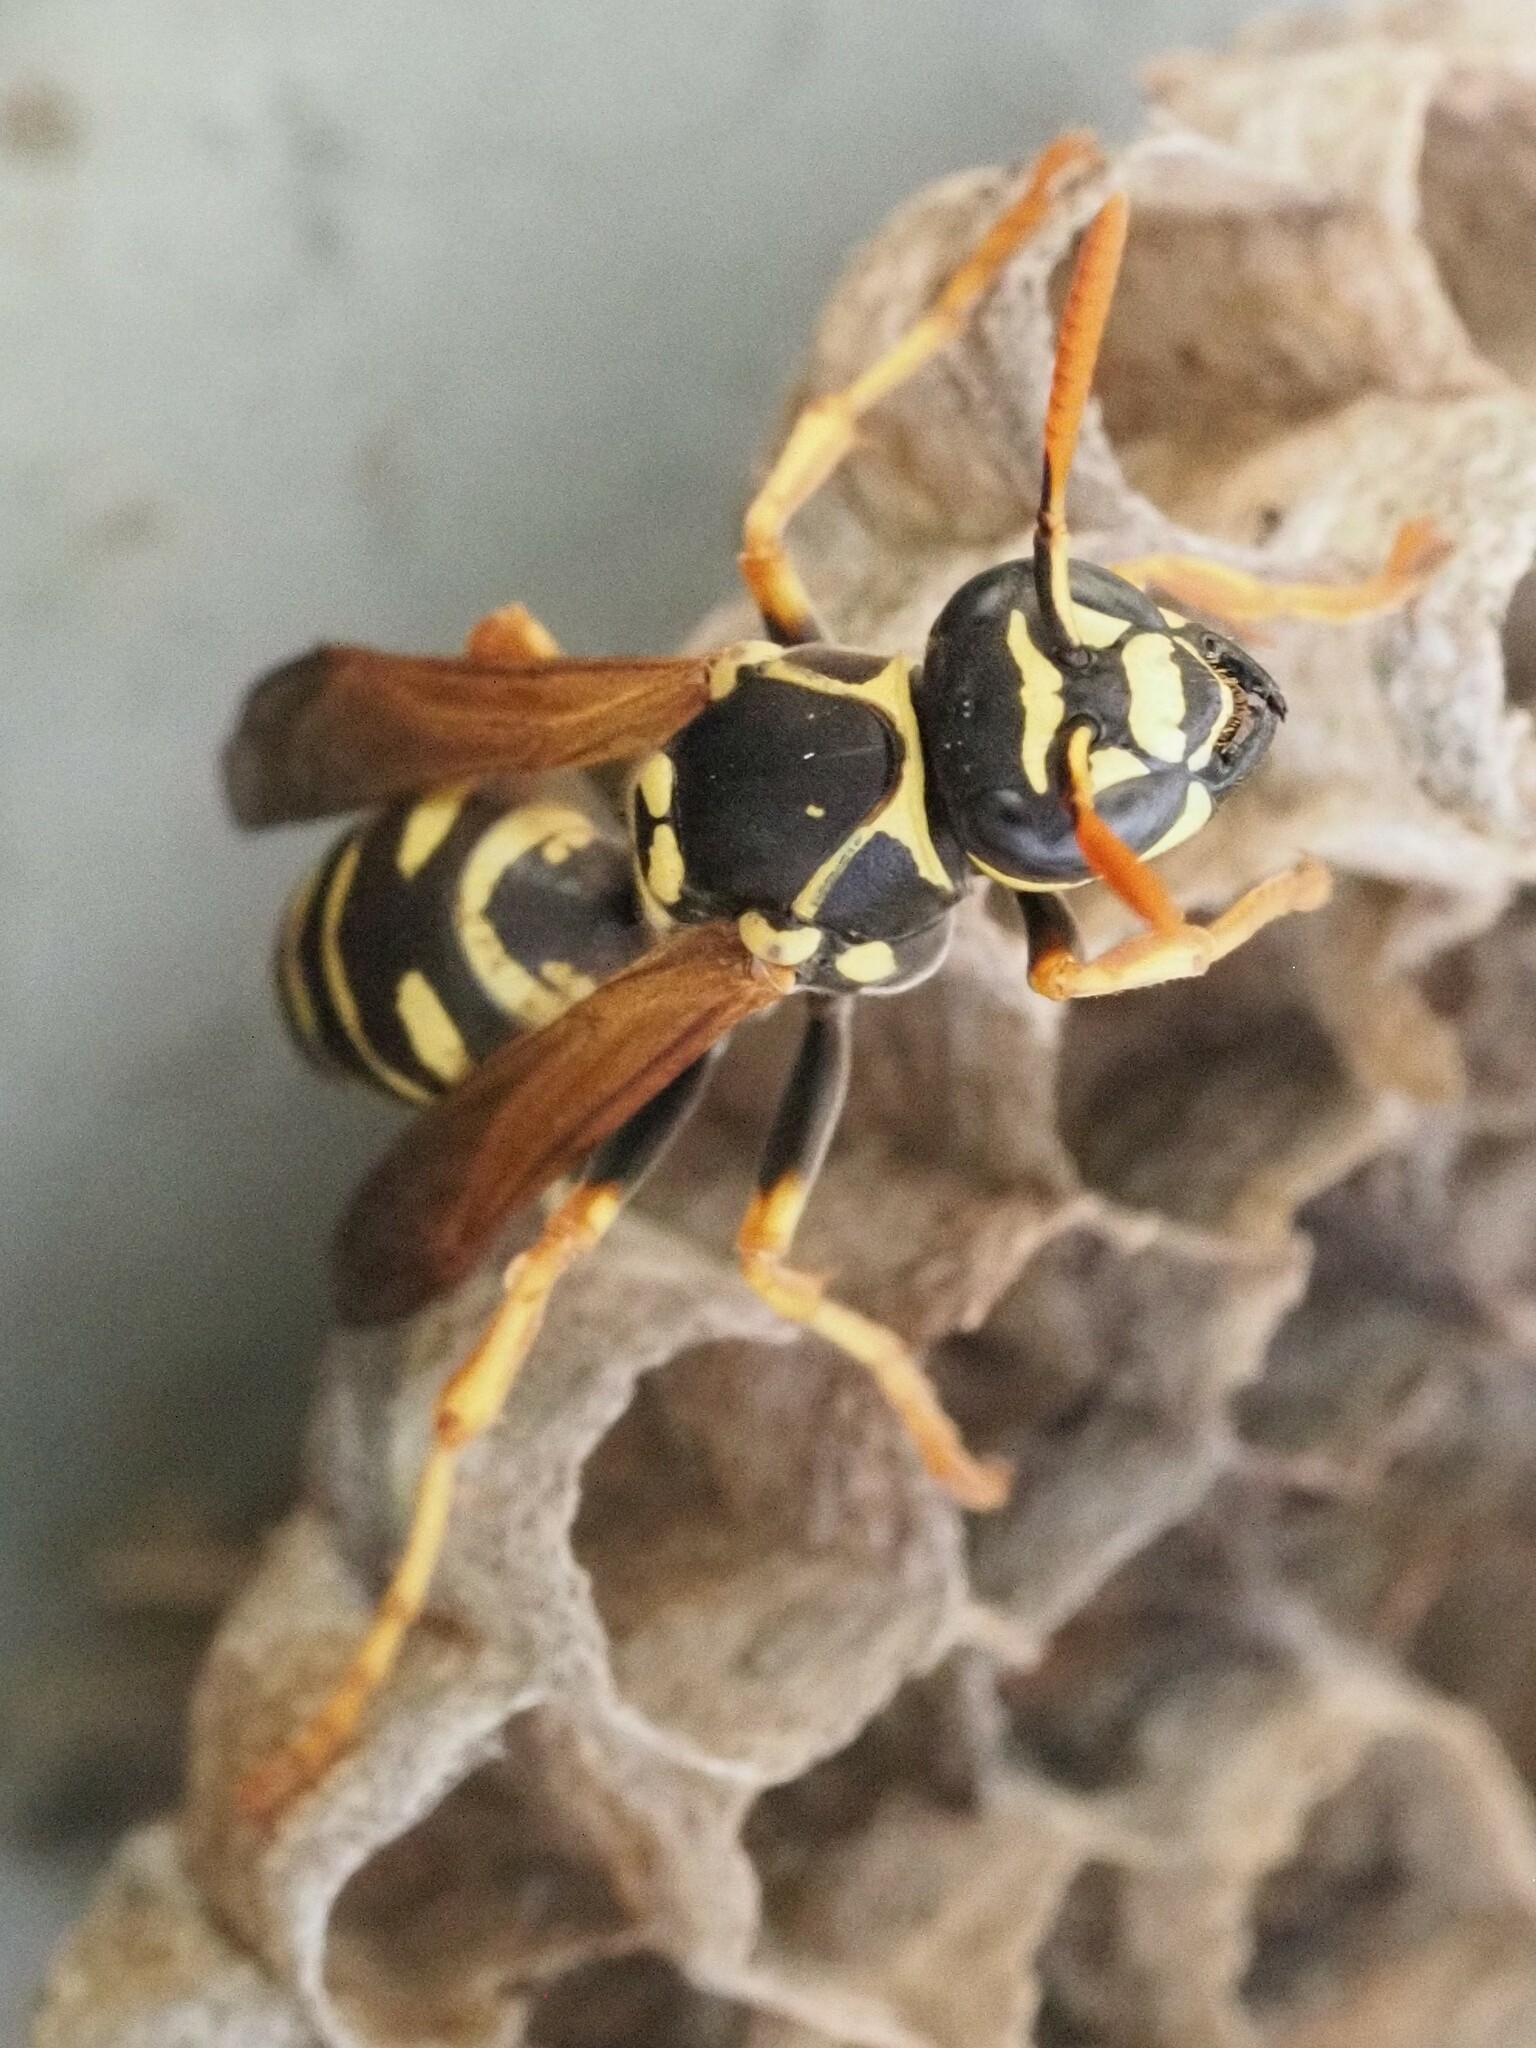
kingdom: Animalia
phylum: Arthropoda
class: Insecta
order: Hymenoptera
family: Eumenidae
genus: Polistes
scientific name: Polistes nimpha
